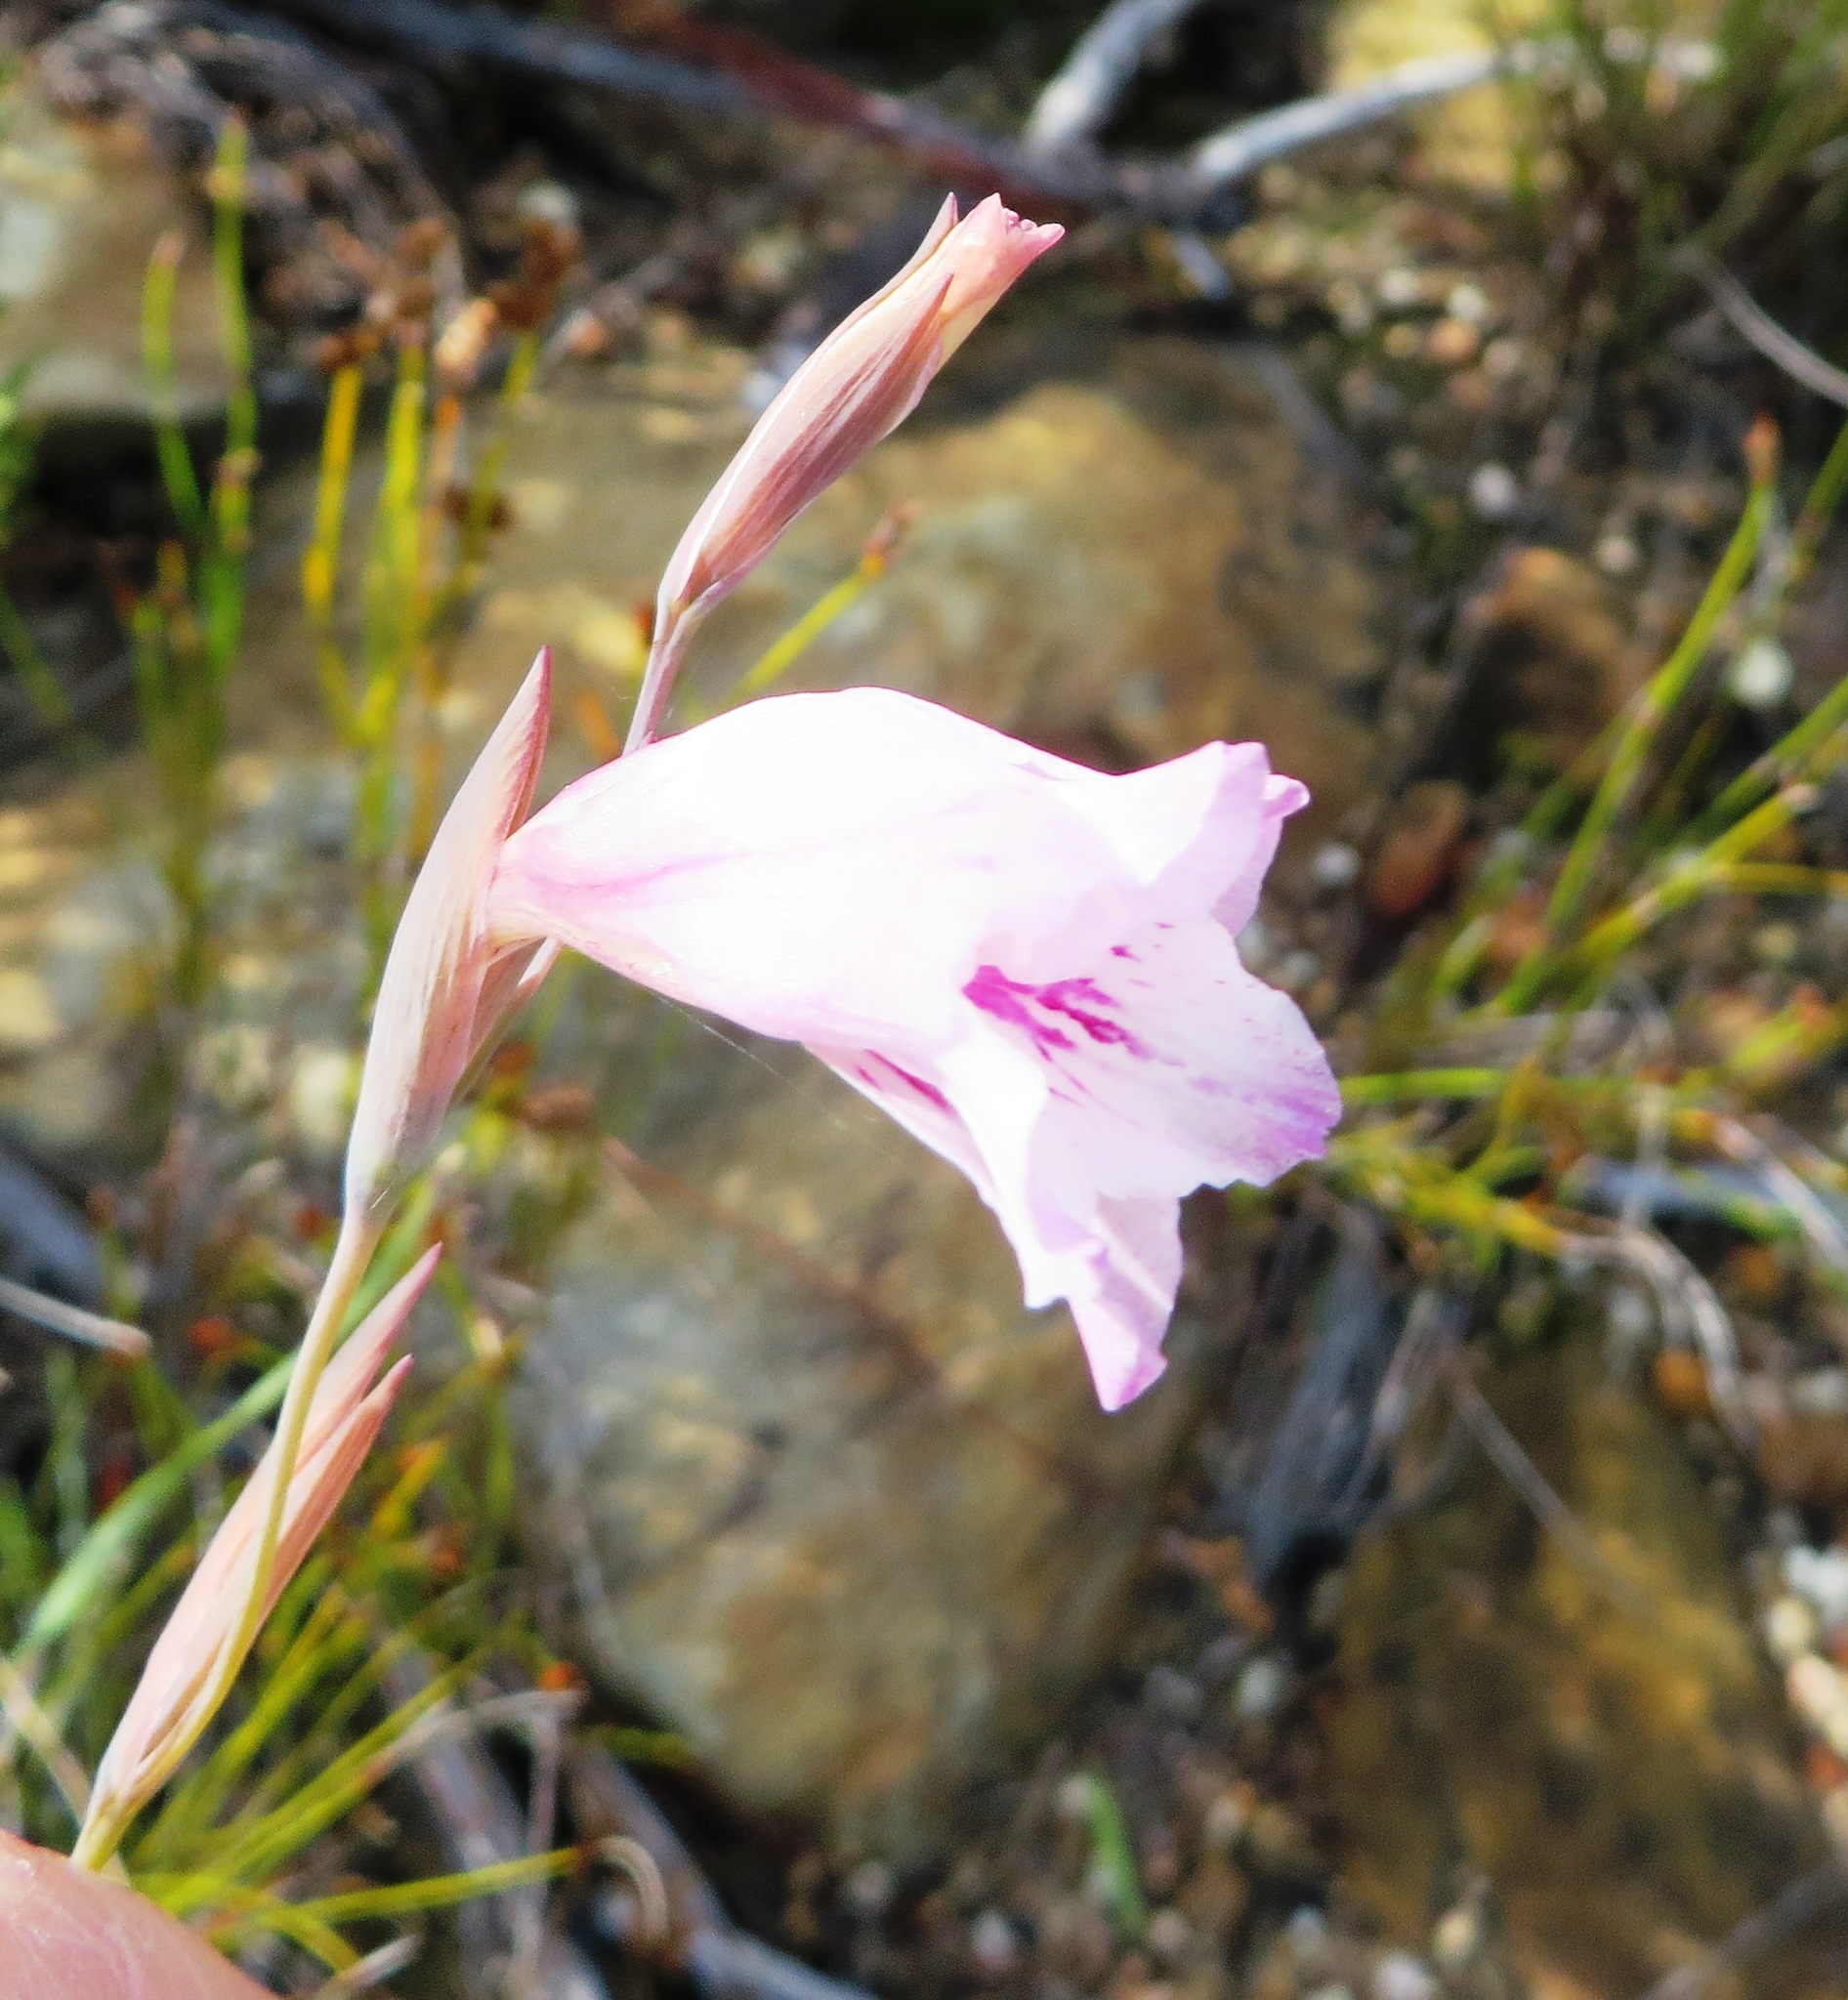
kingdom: Plantae
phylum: Tracheophyta
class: Liliopsida
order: Asparagales
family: Iridaceae
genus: Gladiolus
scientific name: Gladiolus hirsutus
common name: Small pink afrikaner
